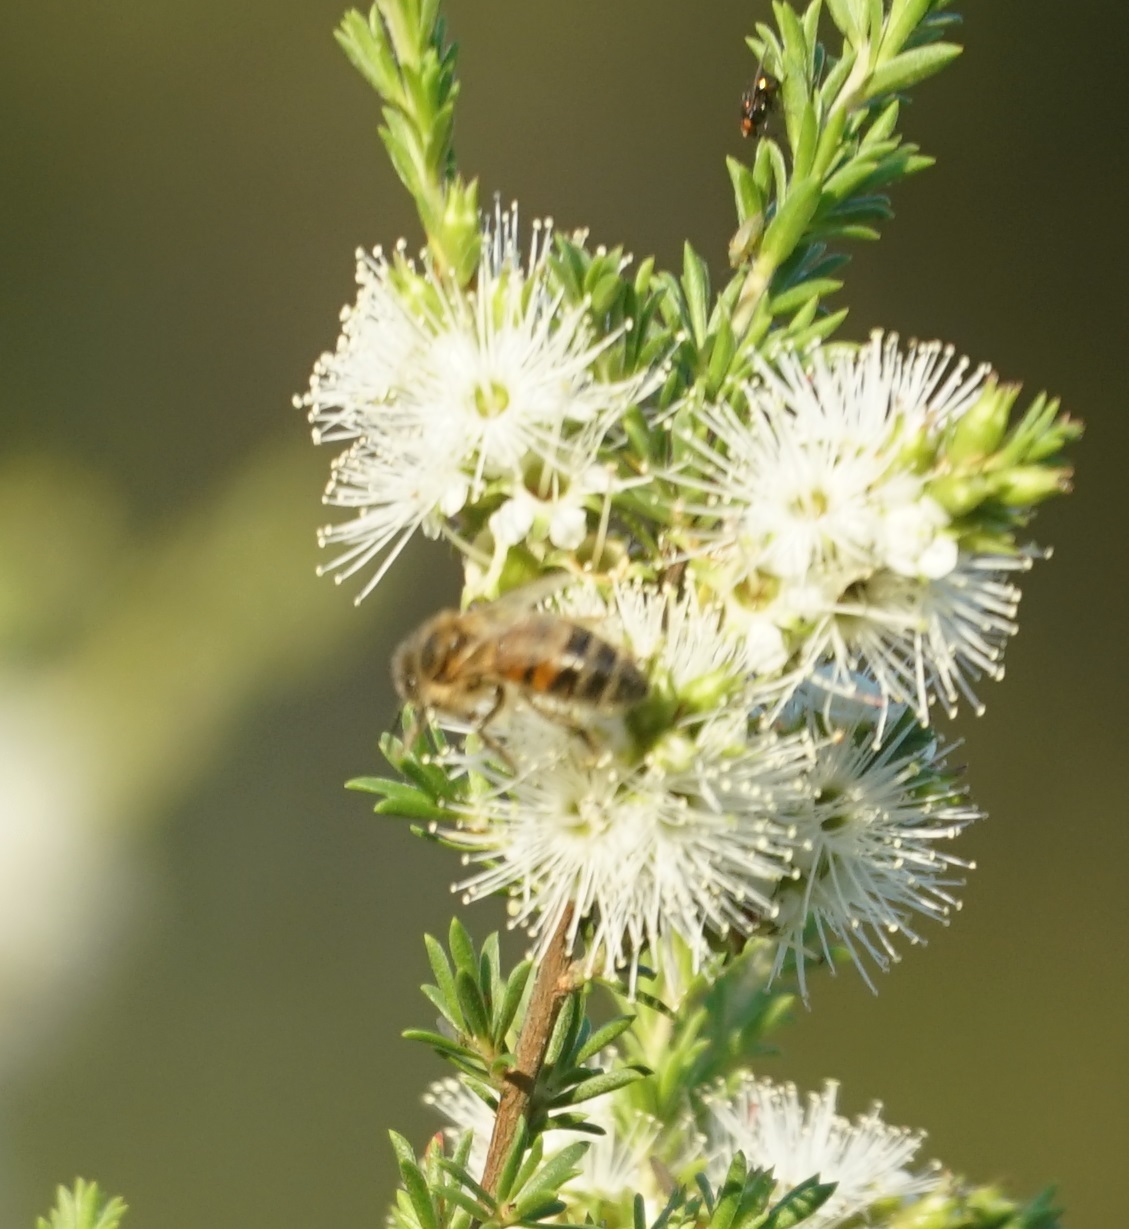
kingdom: Animalia
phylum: Arthropoda
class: Insecta
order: Hymenoptera
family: Apidae
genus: Apis
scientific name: Apis mellifera
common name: Honey bee
